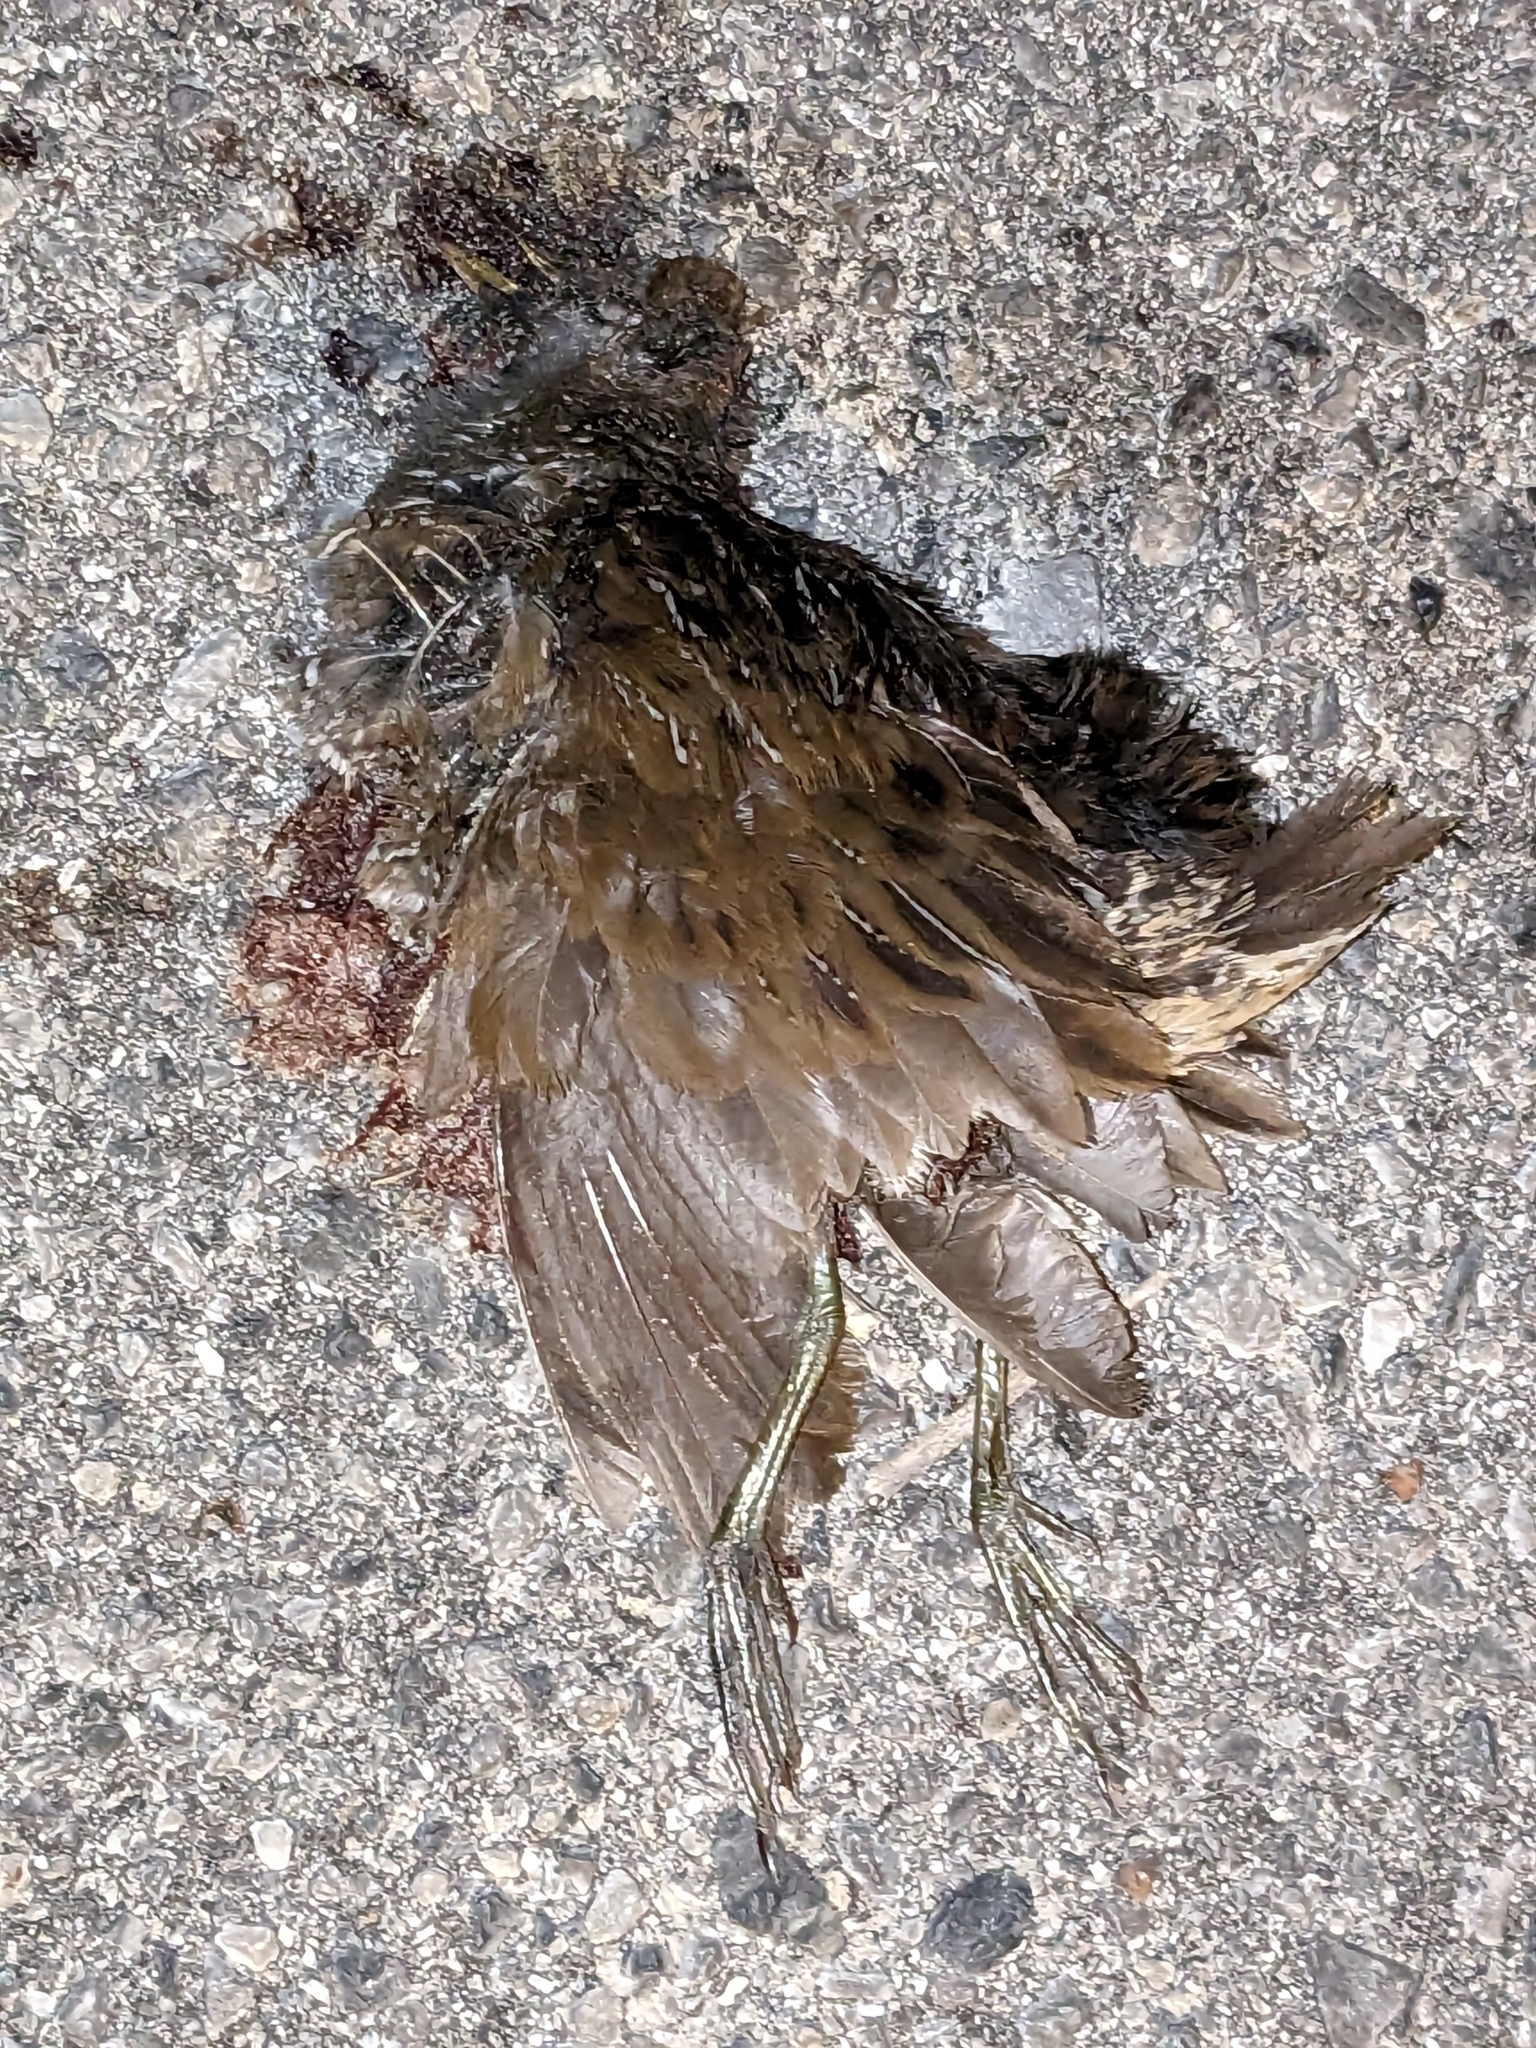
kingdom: Animalia
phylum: Chordata
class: Aves
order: Gruiformes
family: Rallidae
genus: Porzana
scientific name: Porzana carolina
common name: Sora
